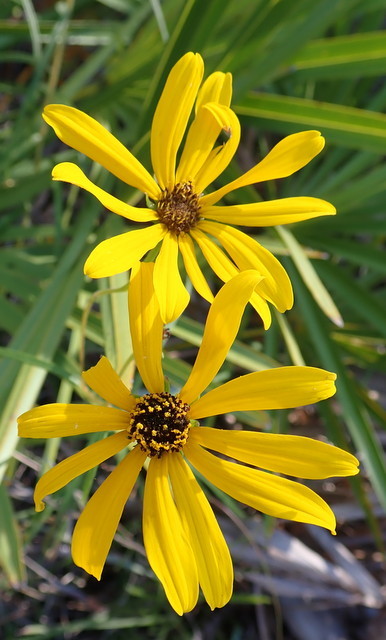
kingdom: Plantae
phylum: Tracheophyta
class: Magnoliopsida
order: Asterales
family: Asteraceae
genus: Helianthus
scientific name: Helianthus angustifolius
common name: Swamp sunflower
